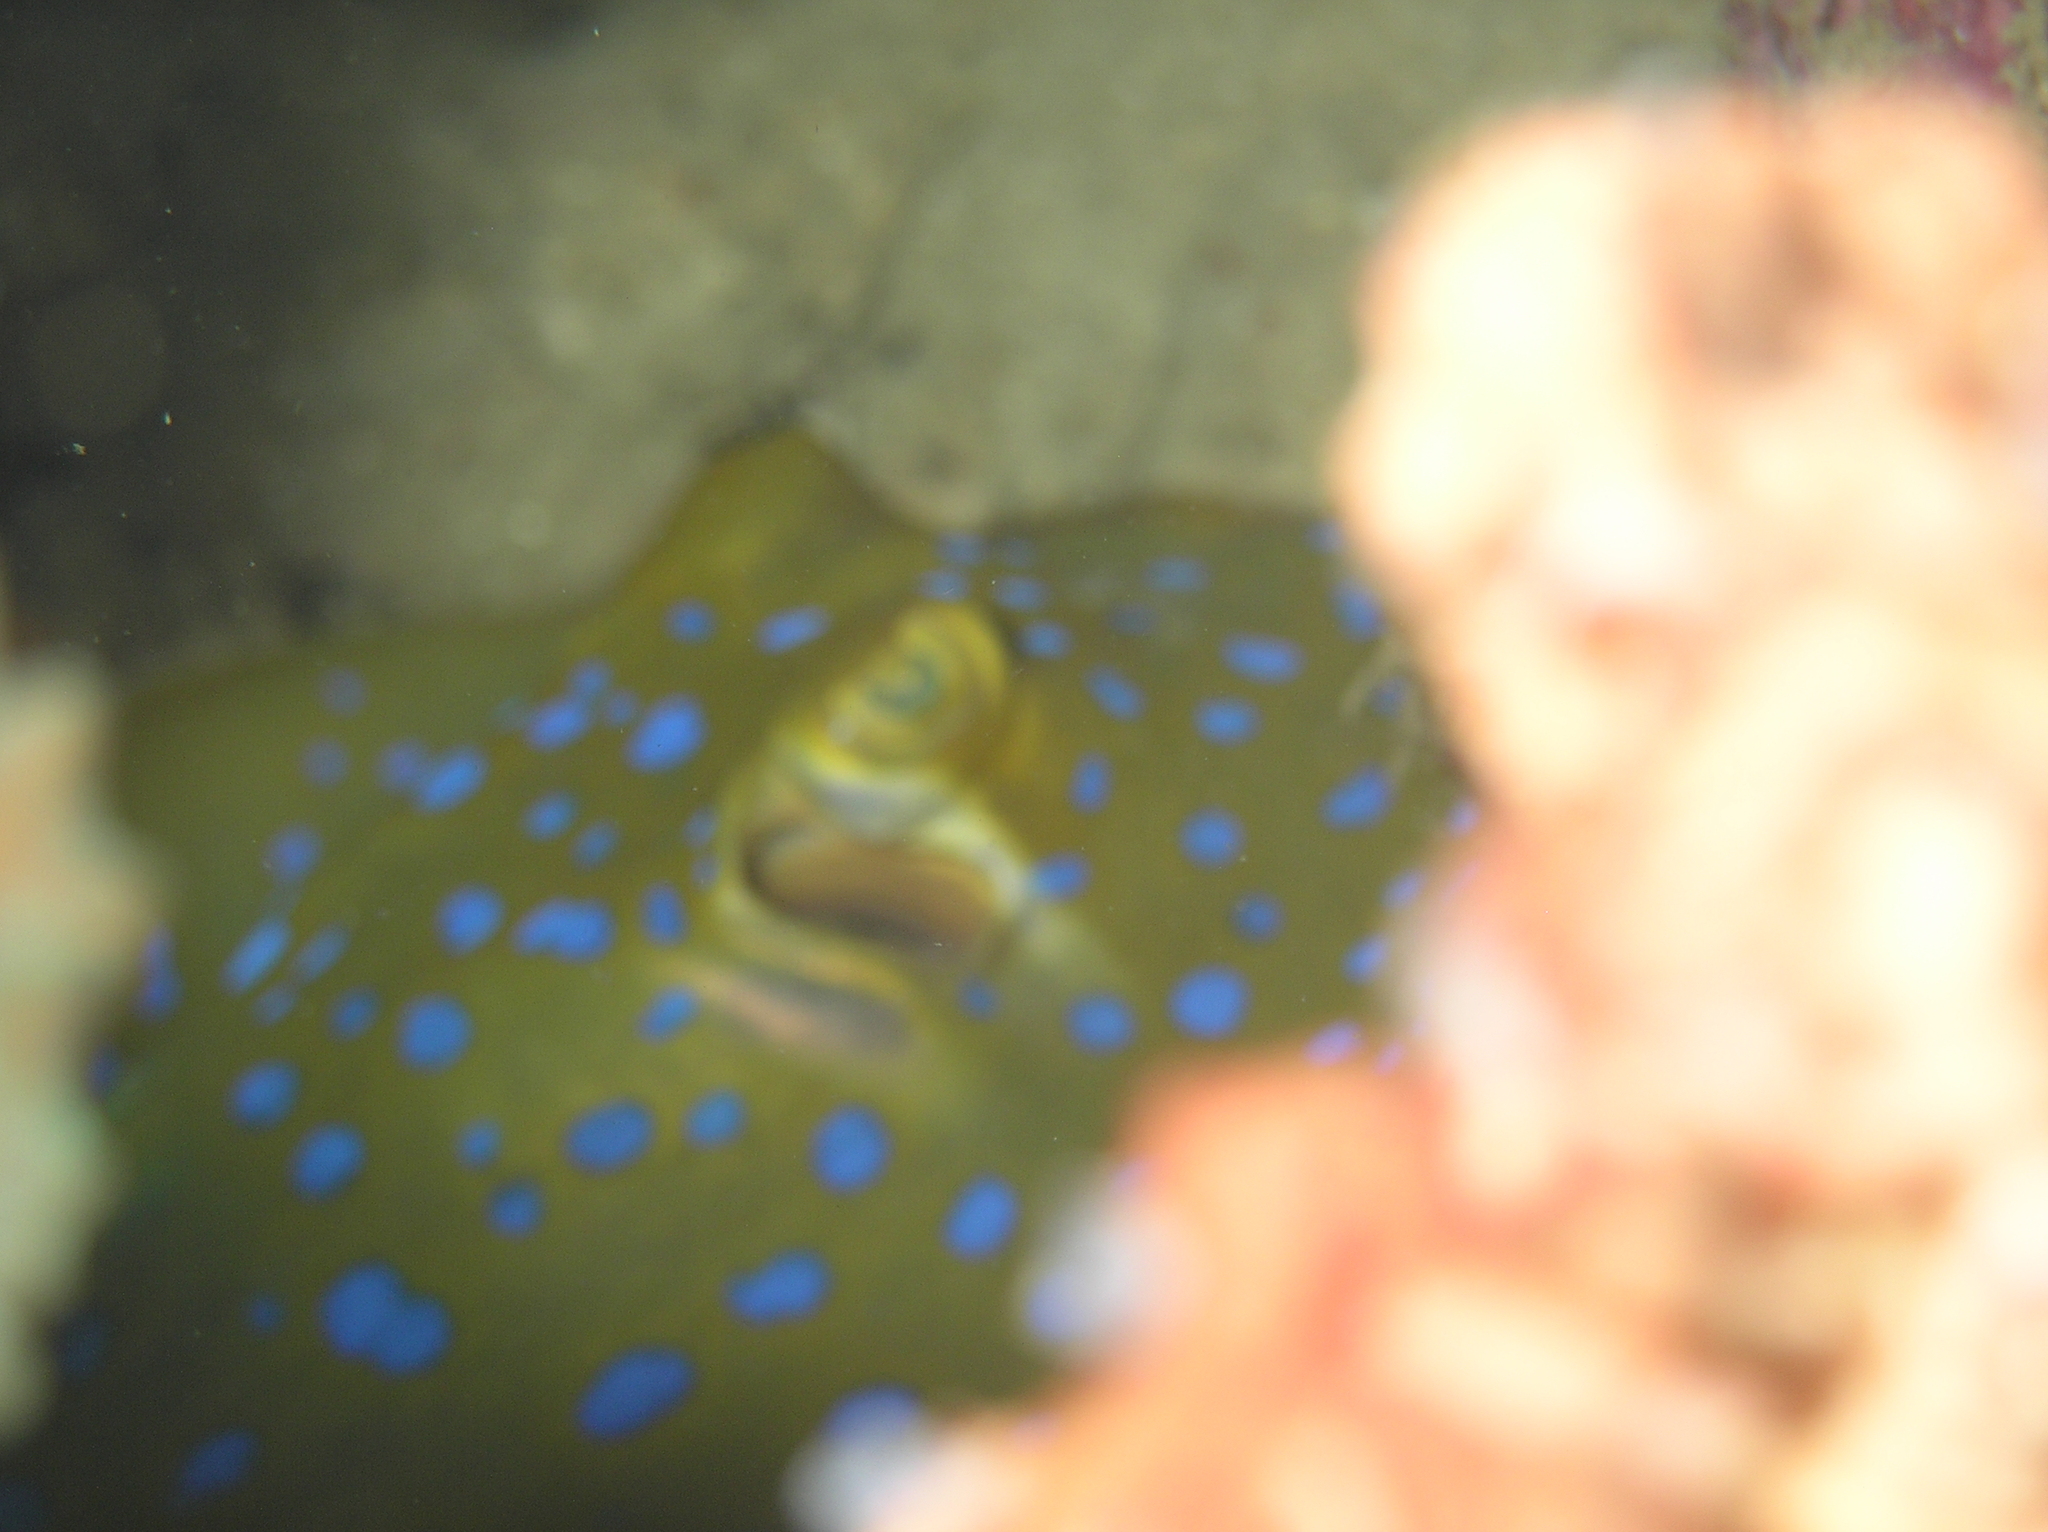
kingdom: Animalia
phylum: Chordata
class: Elasmobranchii
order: Myliobatiformes
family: Dasyatidae
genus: Taeniura
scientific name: Taeniura lymma
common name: Bluespotted ribbontail ray
